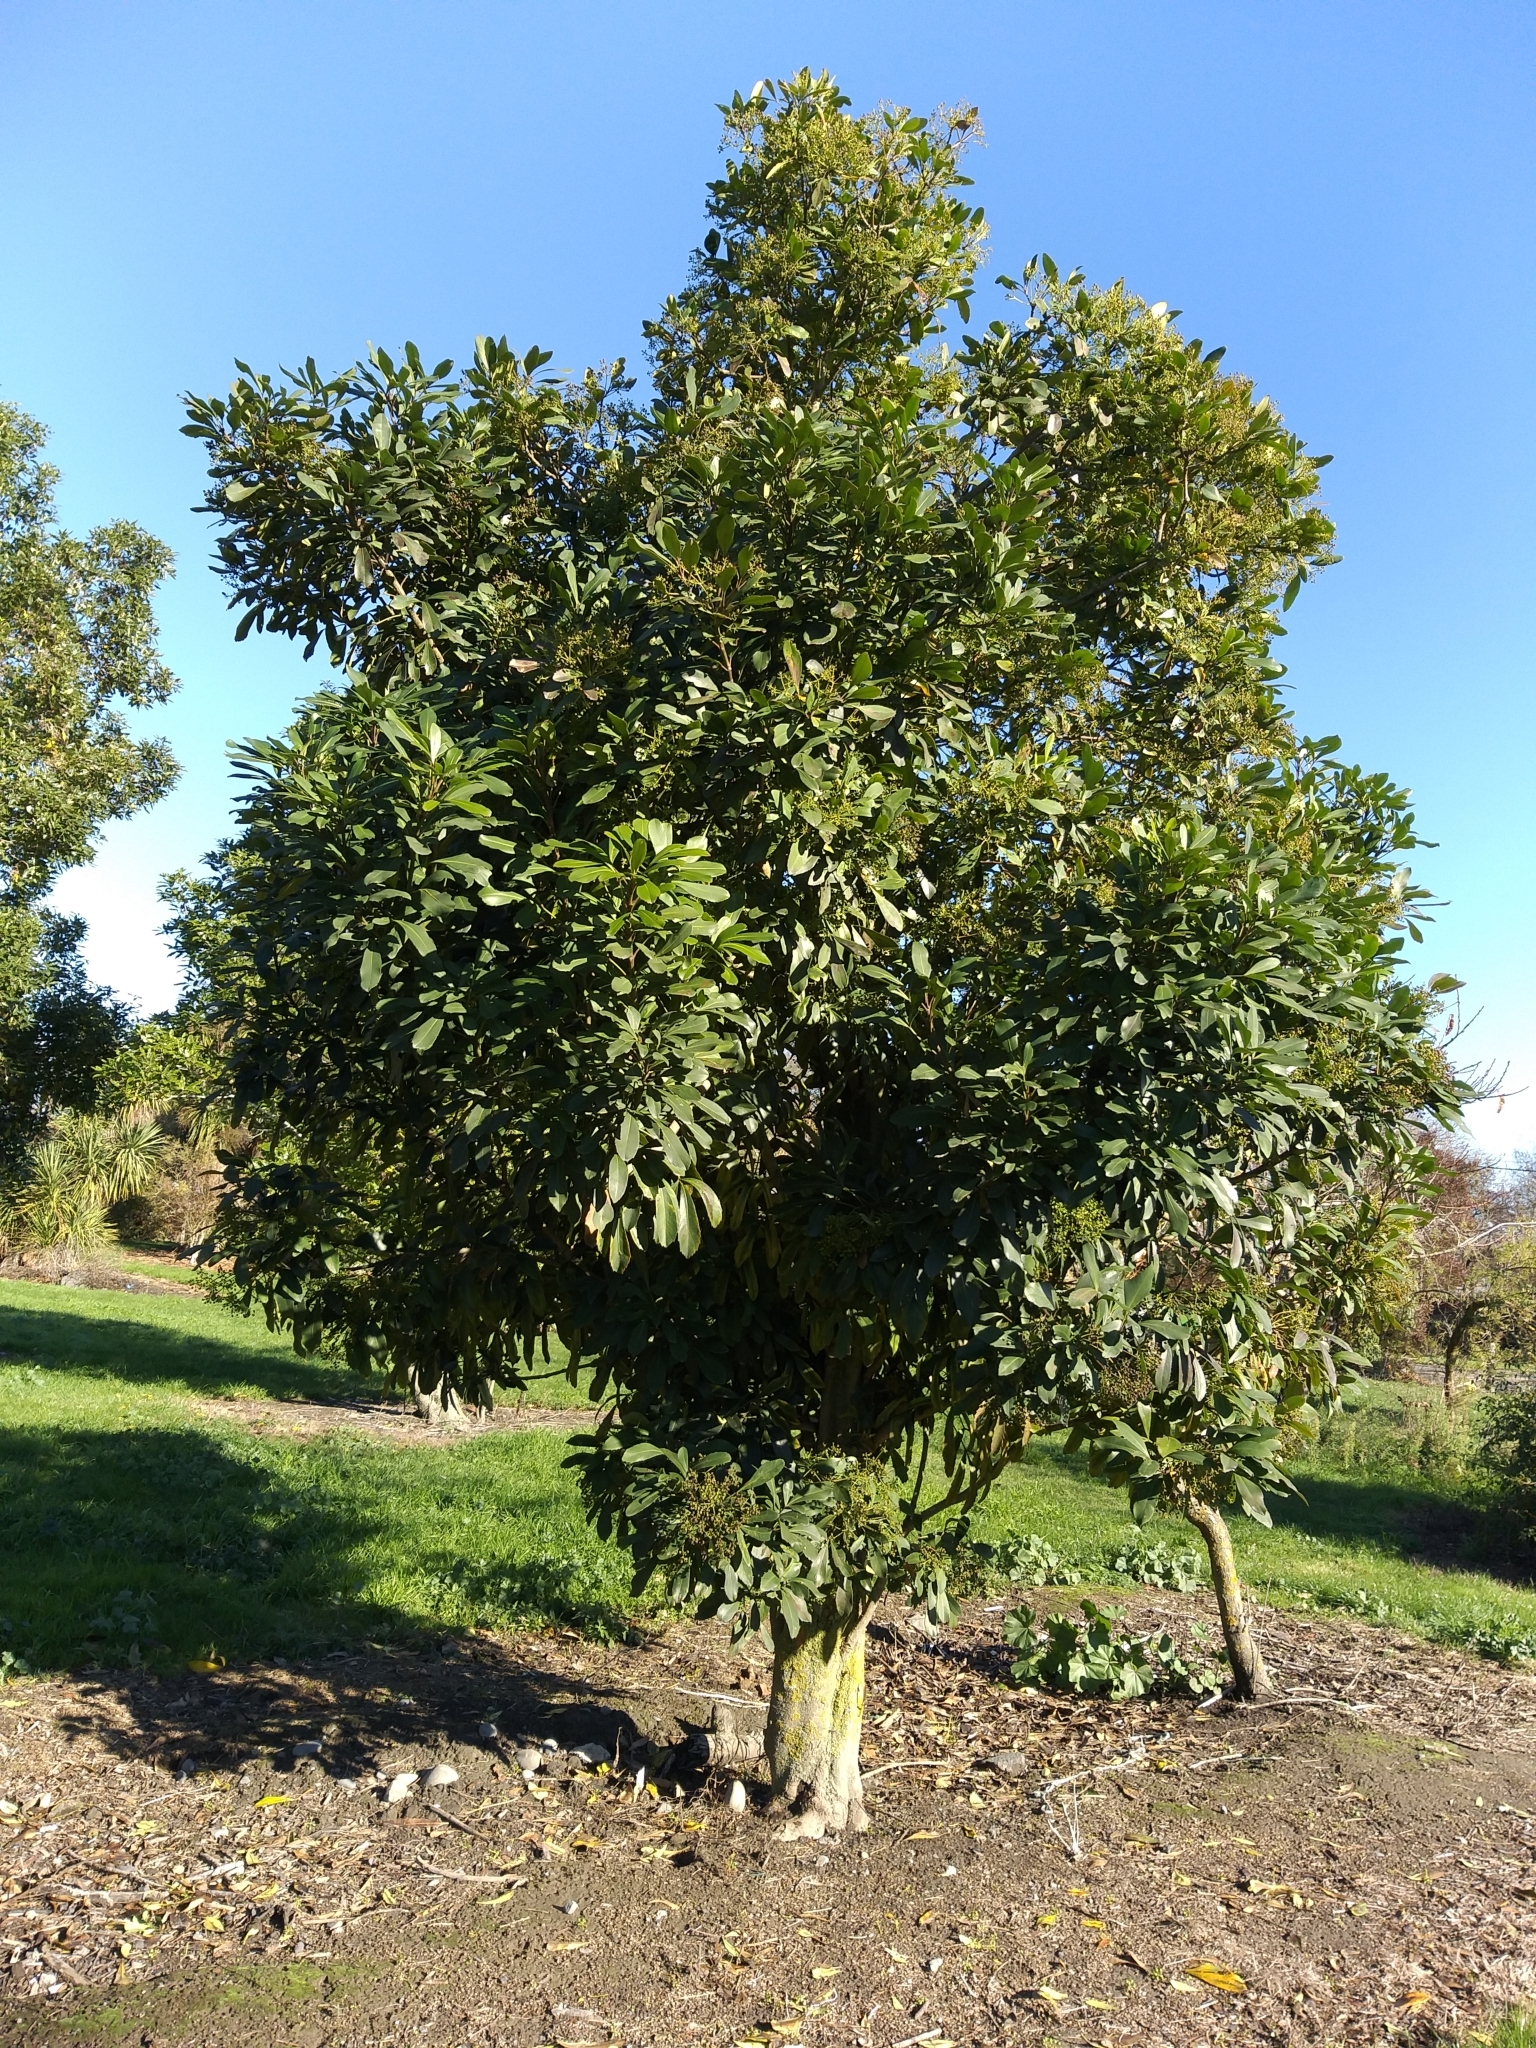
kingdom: Plantae
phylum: Tracheophyta
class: Magnoliopsida
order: Apiales
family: Araliaceae
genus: Pseudopanax
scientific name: Pseudopanax crassifolius
